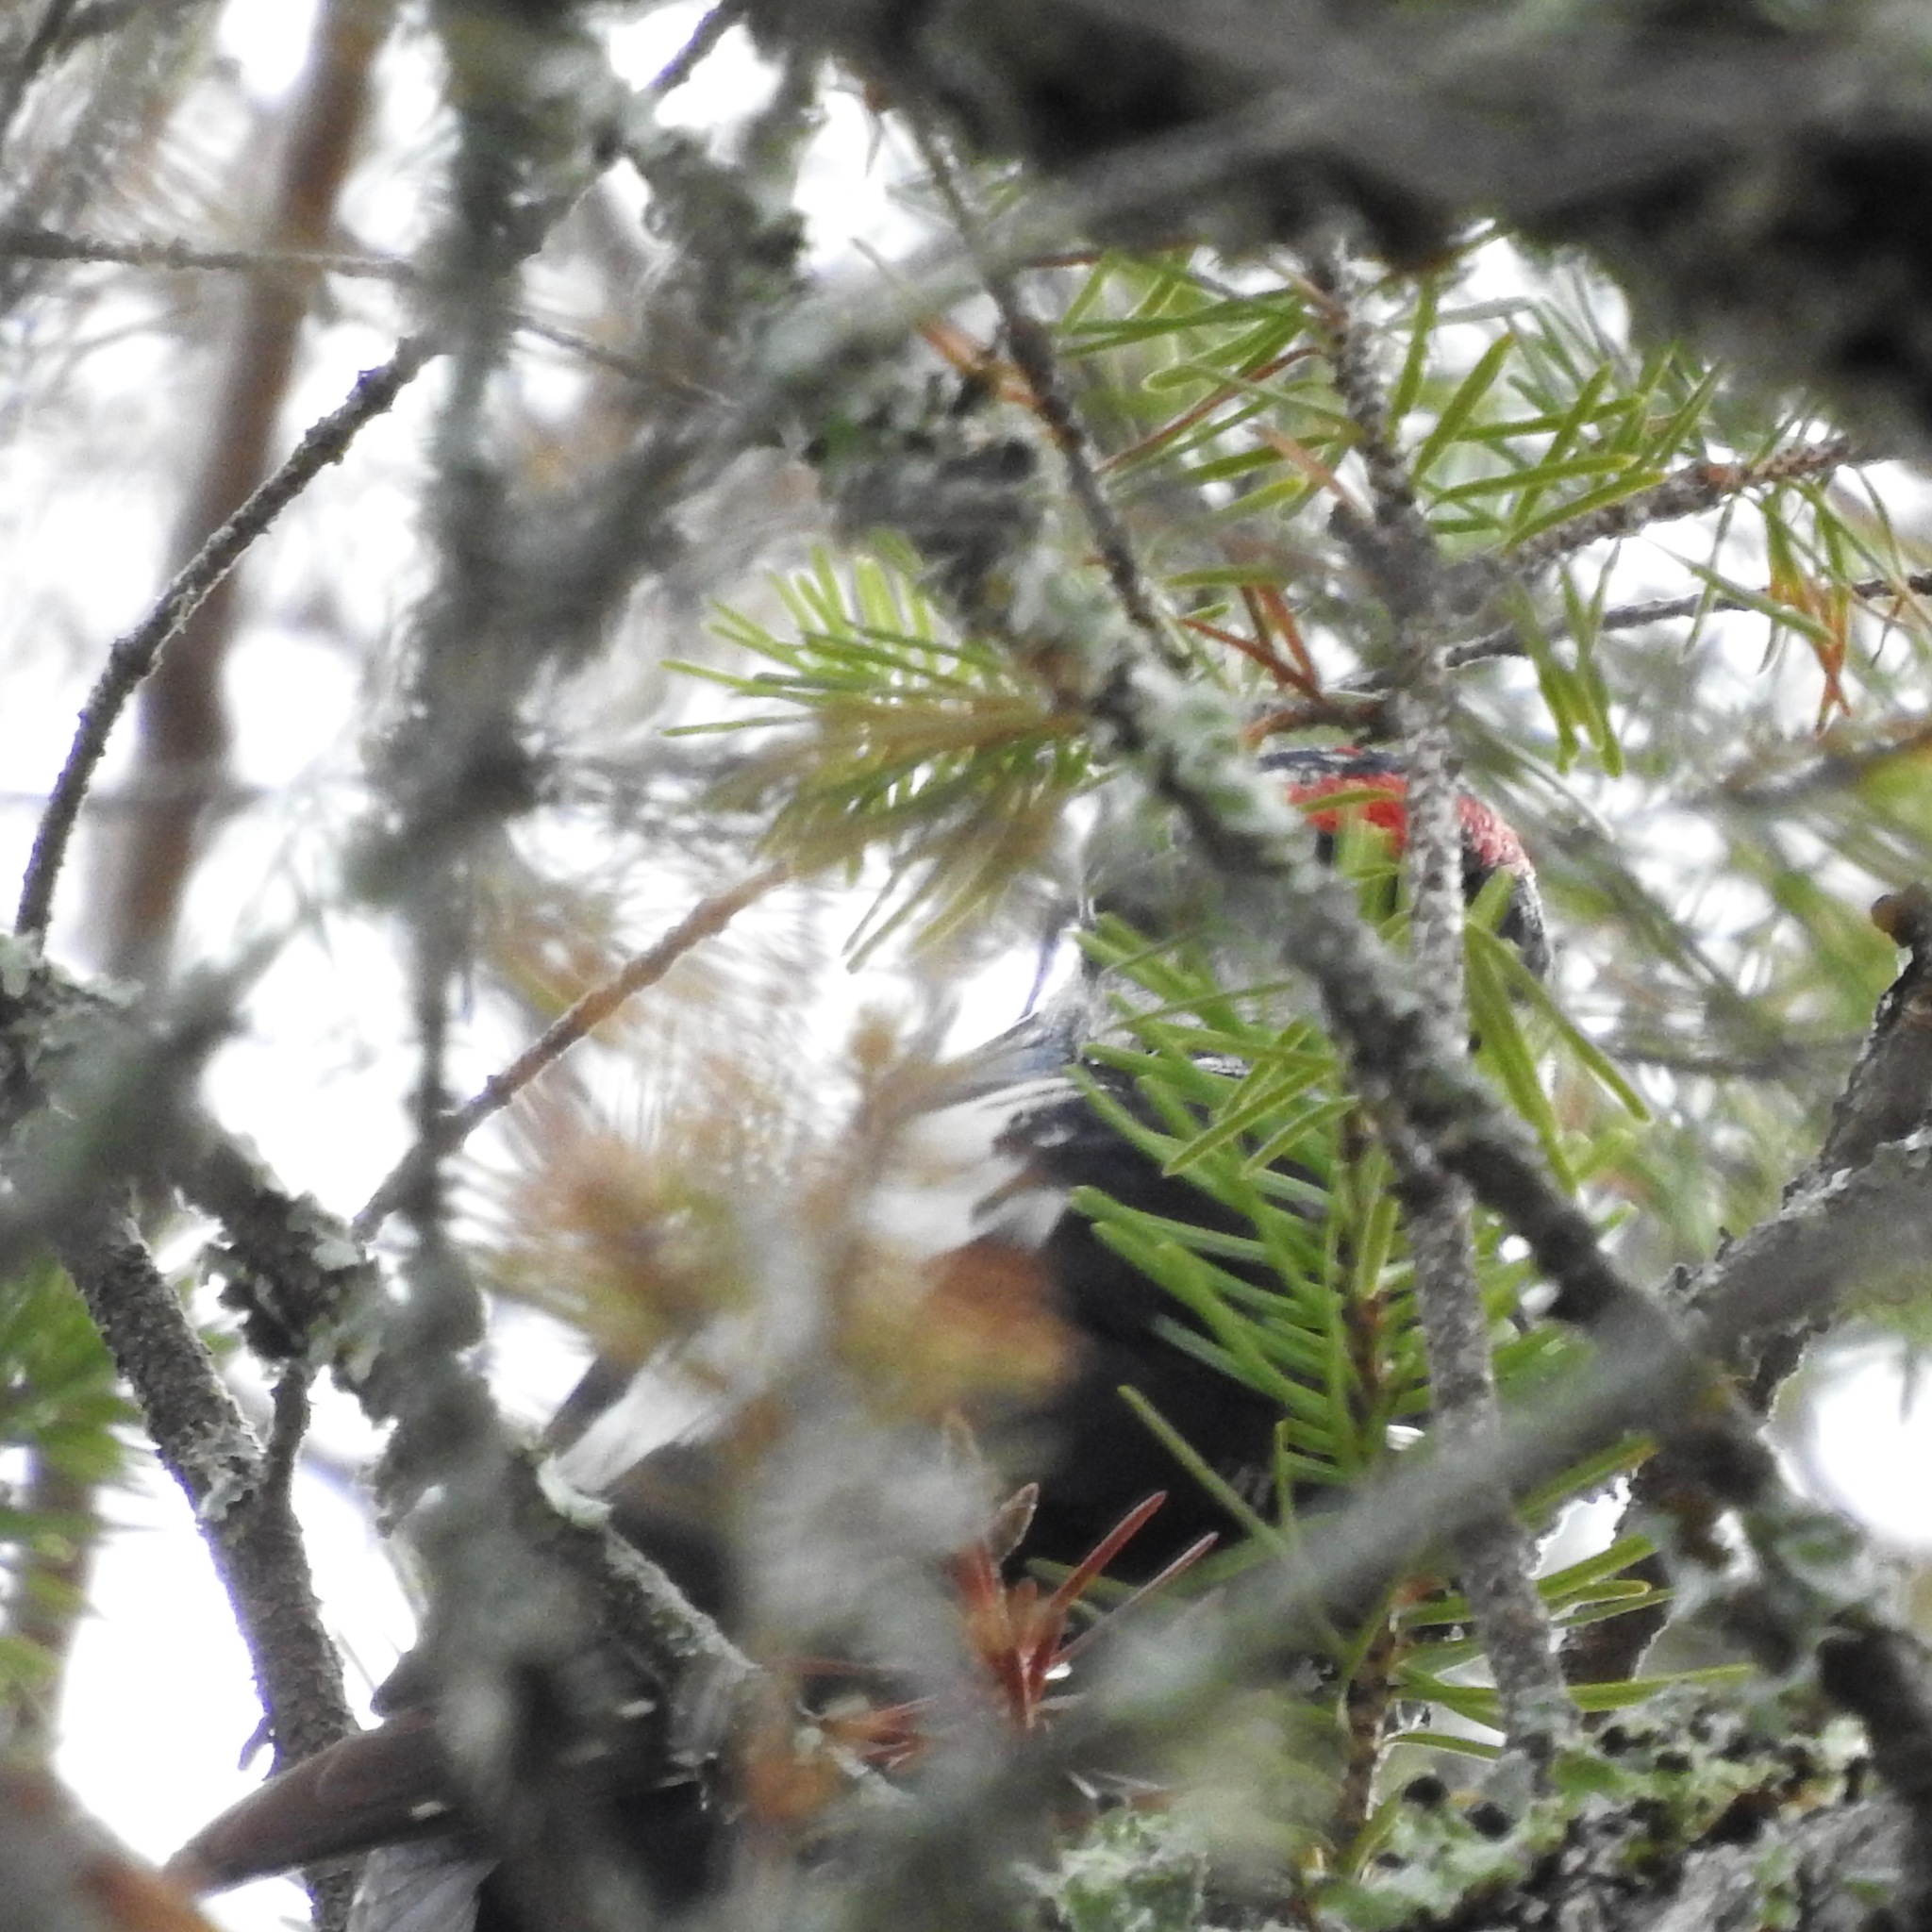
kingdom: Animalia
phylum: Chordata
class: Aves
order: Piciformes
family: Picidae
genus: Dryobates
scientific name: Dryobates
